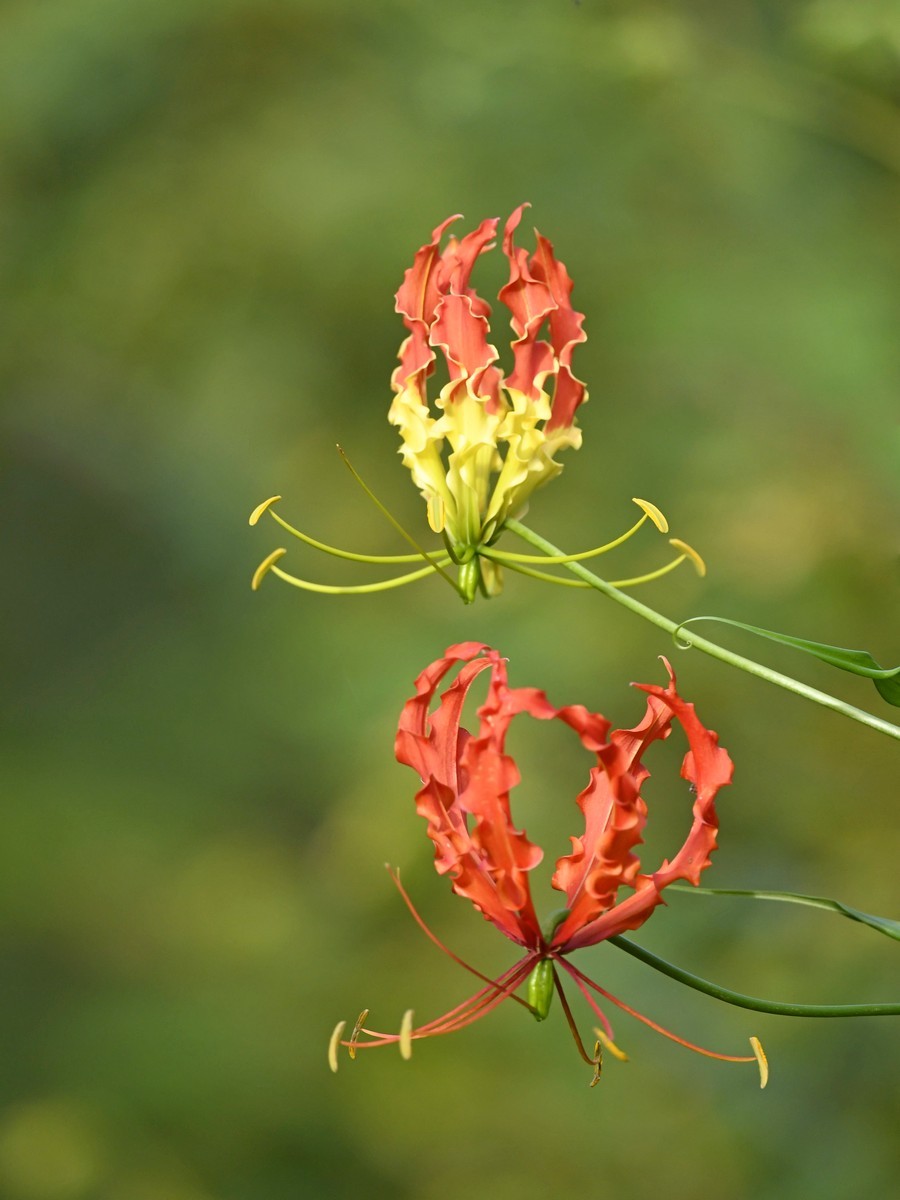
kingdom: Plantae
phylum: Tracheophyta
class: Liliopsida
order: Liliales
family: Colchicaceae
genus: Gloriosa
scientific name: Gloriosa superba
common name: Flame lily
